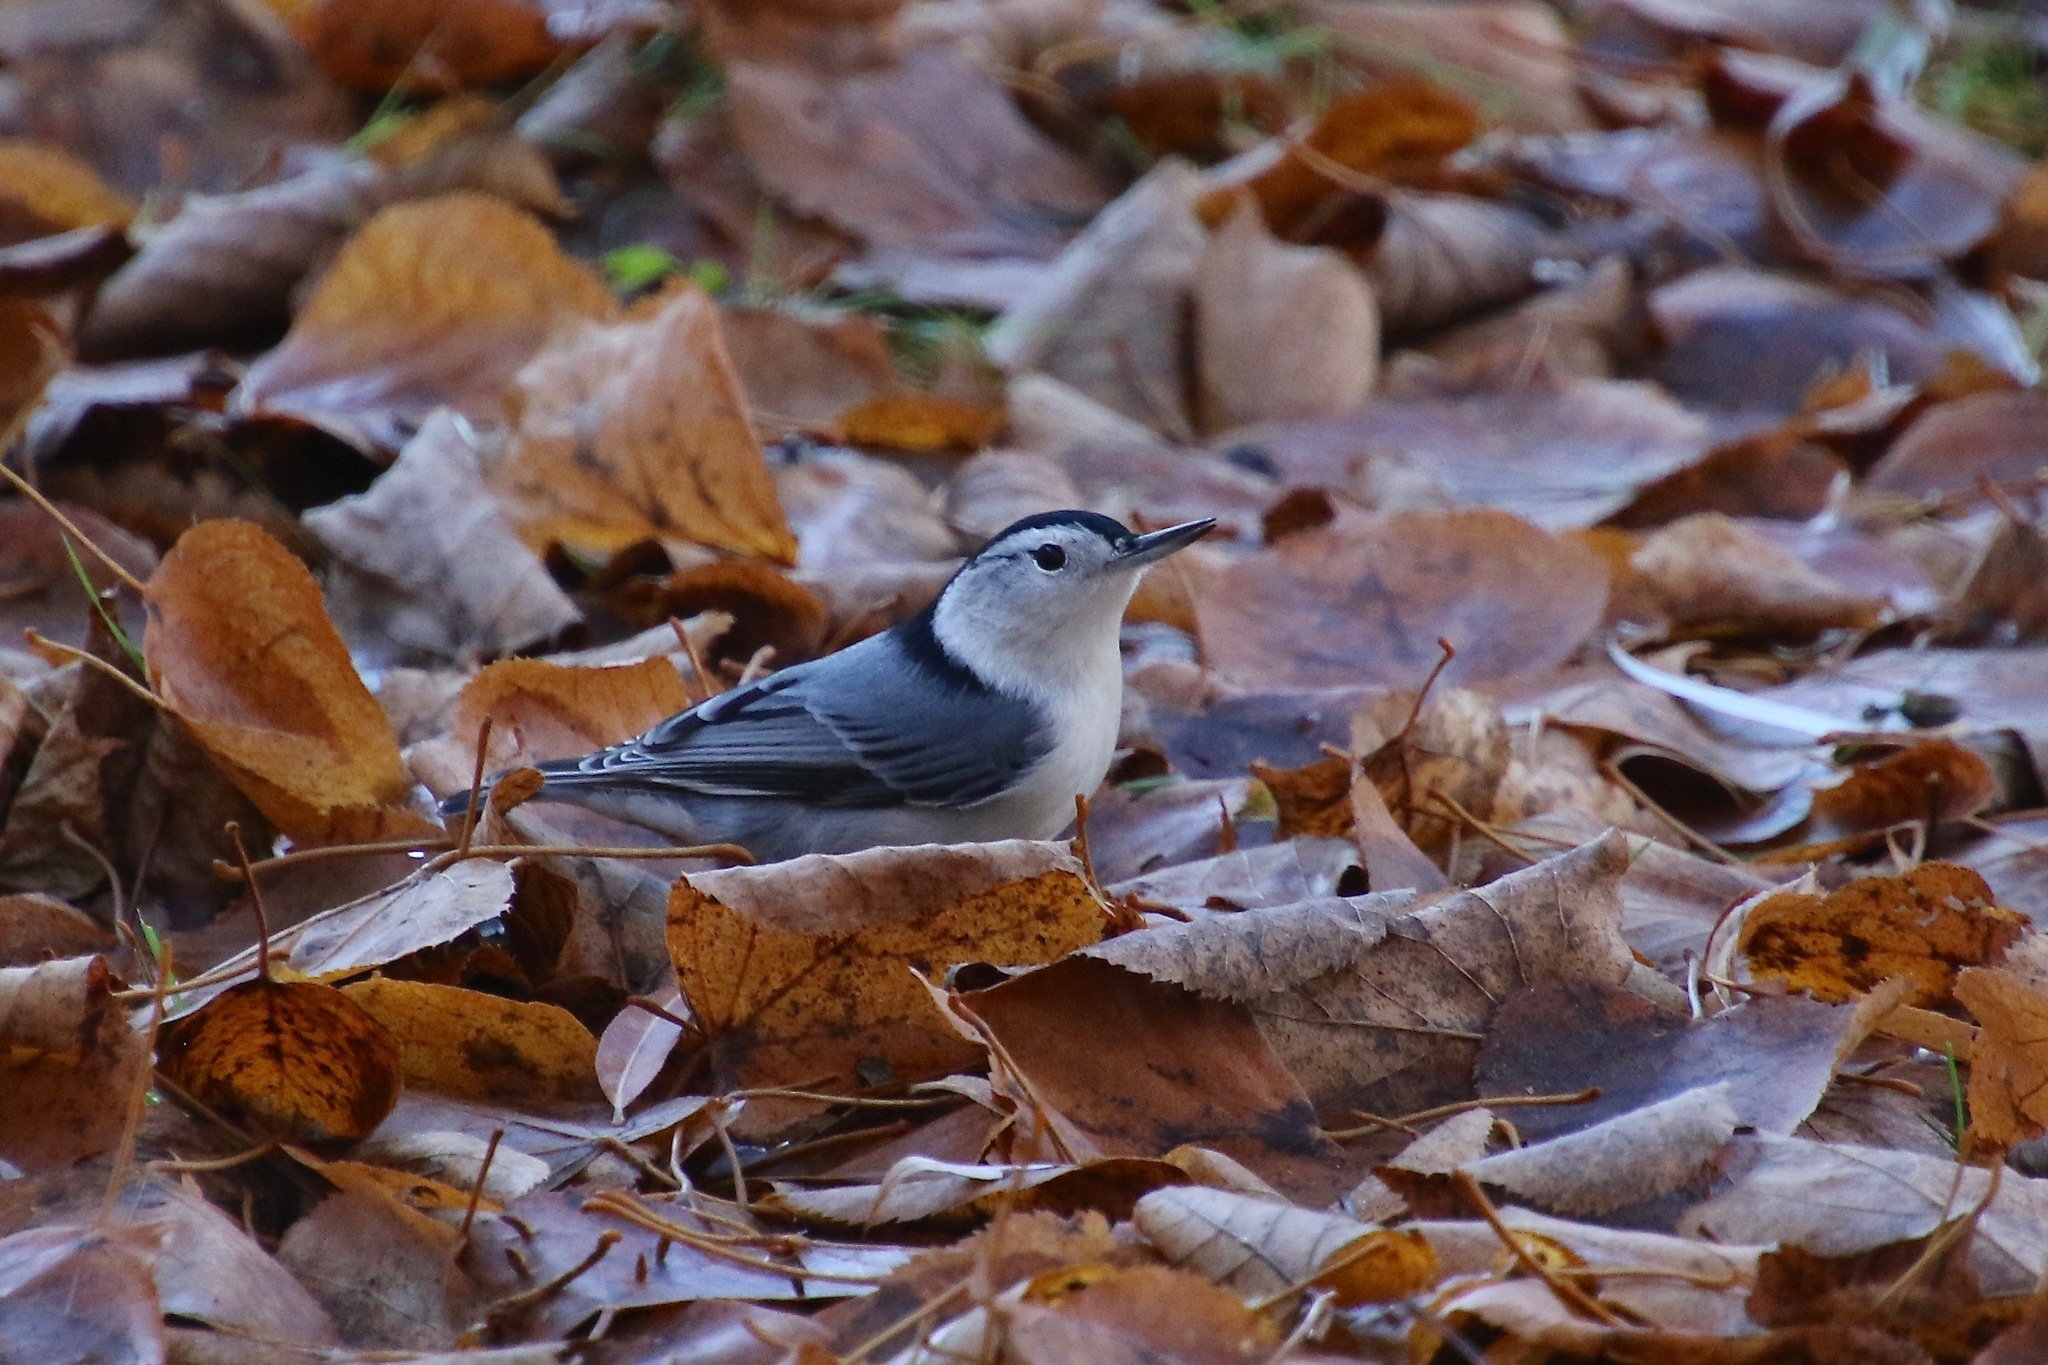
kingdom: Animalia
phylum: Chordata
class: Aves
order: Passeriformes
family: Sittidae
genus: Sitta
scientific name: Sitta carolinensis
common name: White-breasted nuthatch
